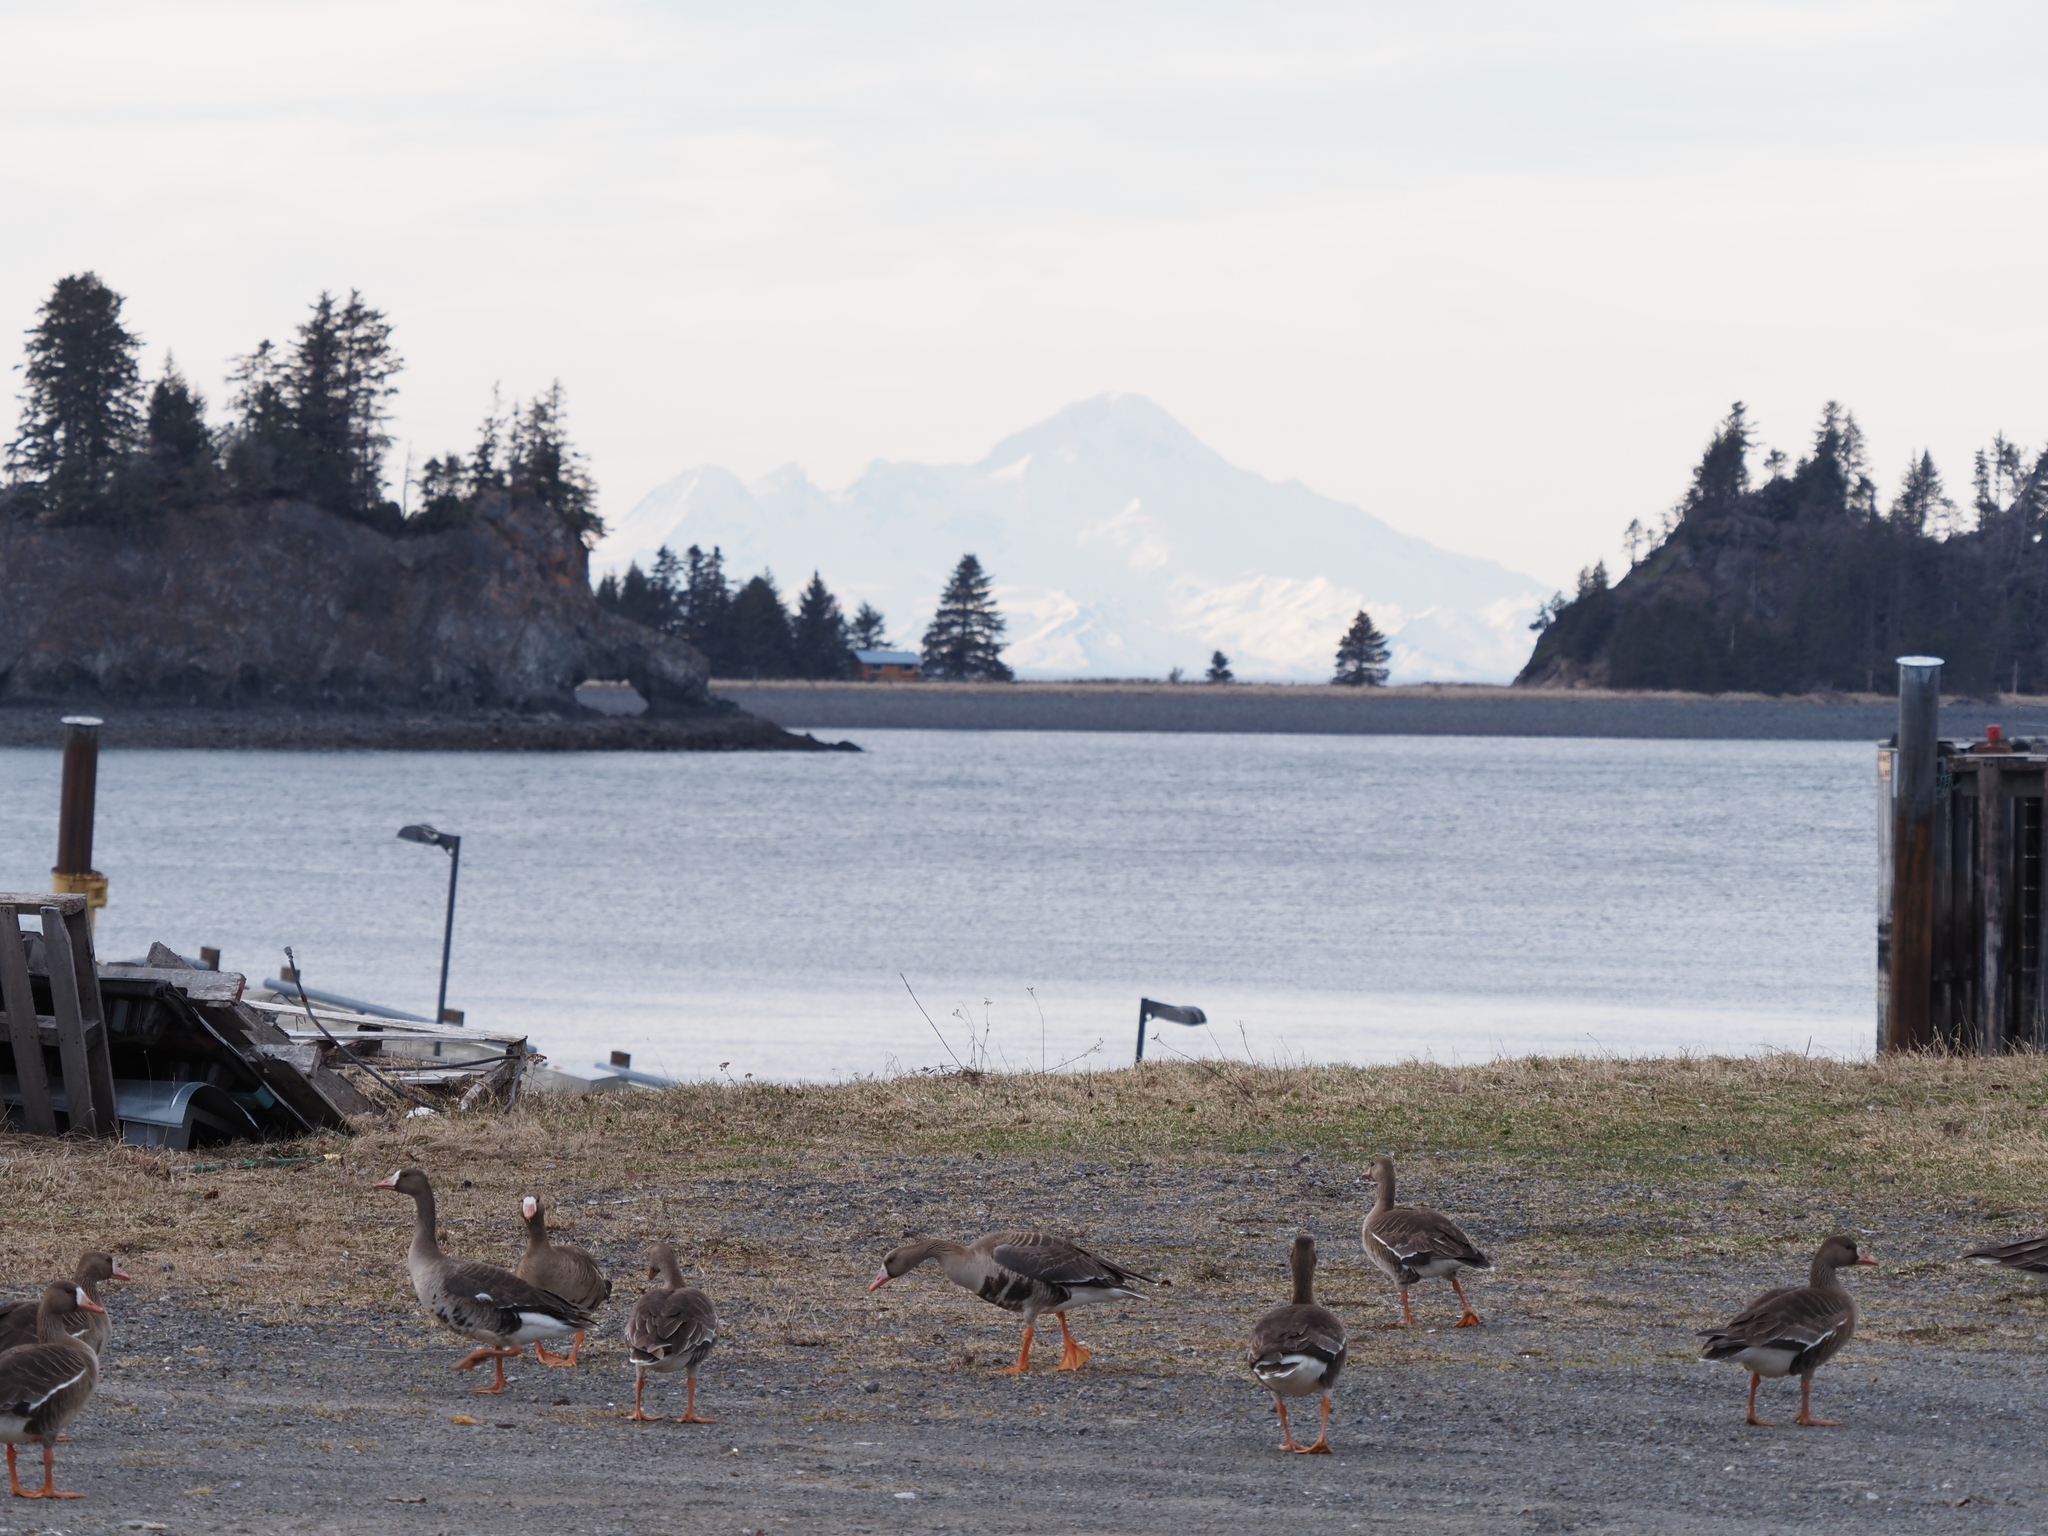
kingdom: Animalia
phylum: Chordata
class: Aves
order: Anseriformes
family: Anatidae
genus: Anser
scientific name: Anser albifrons
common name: Greater white-fronted goose
